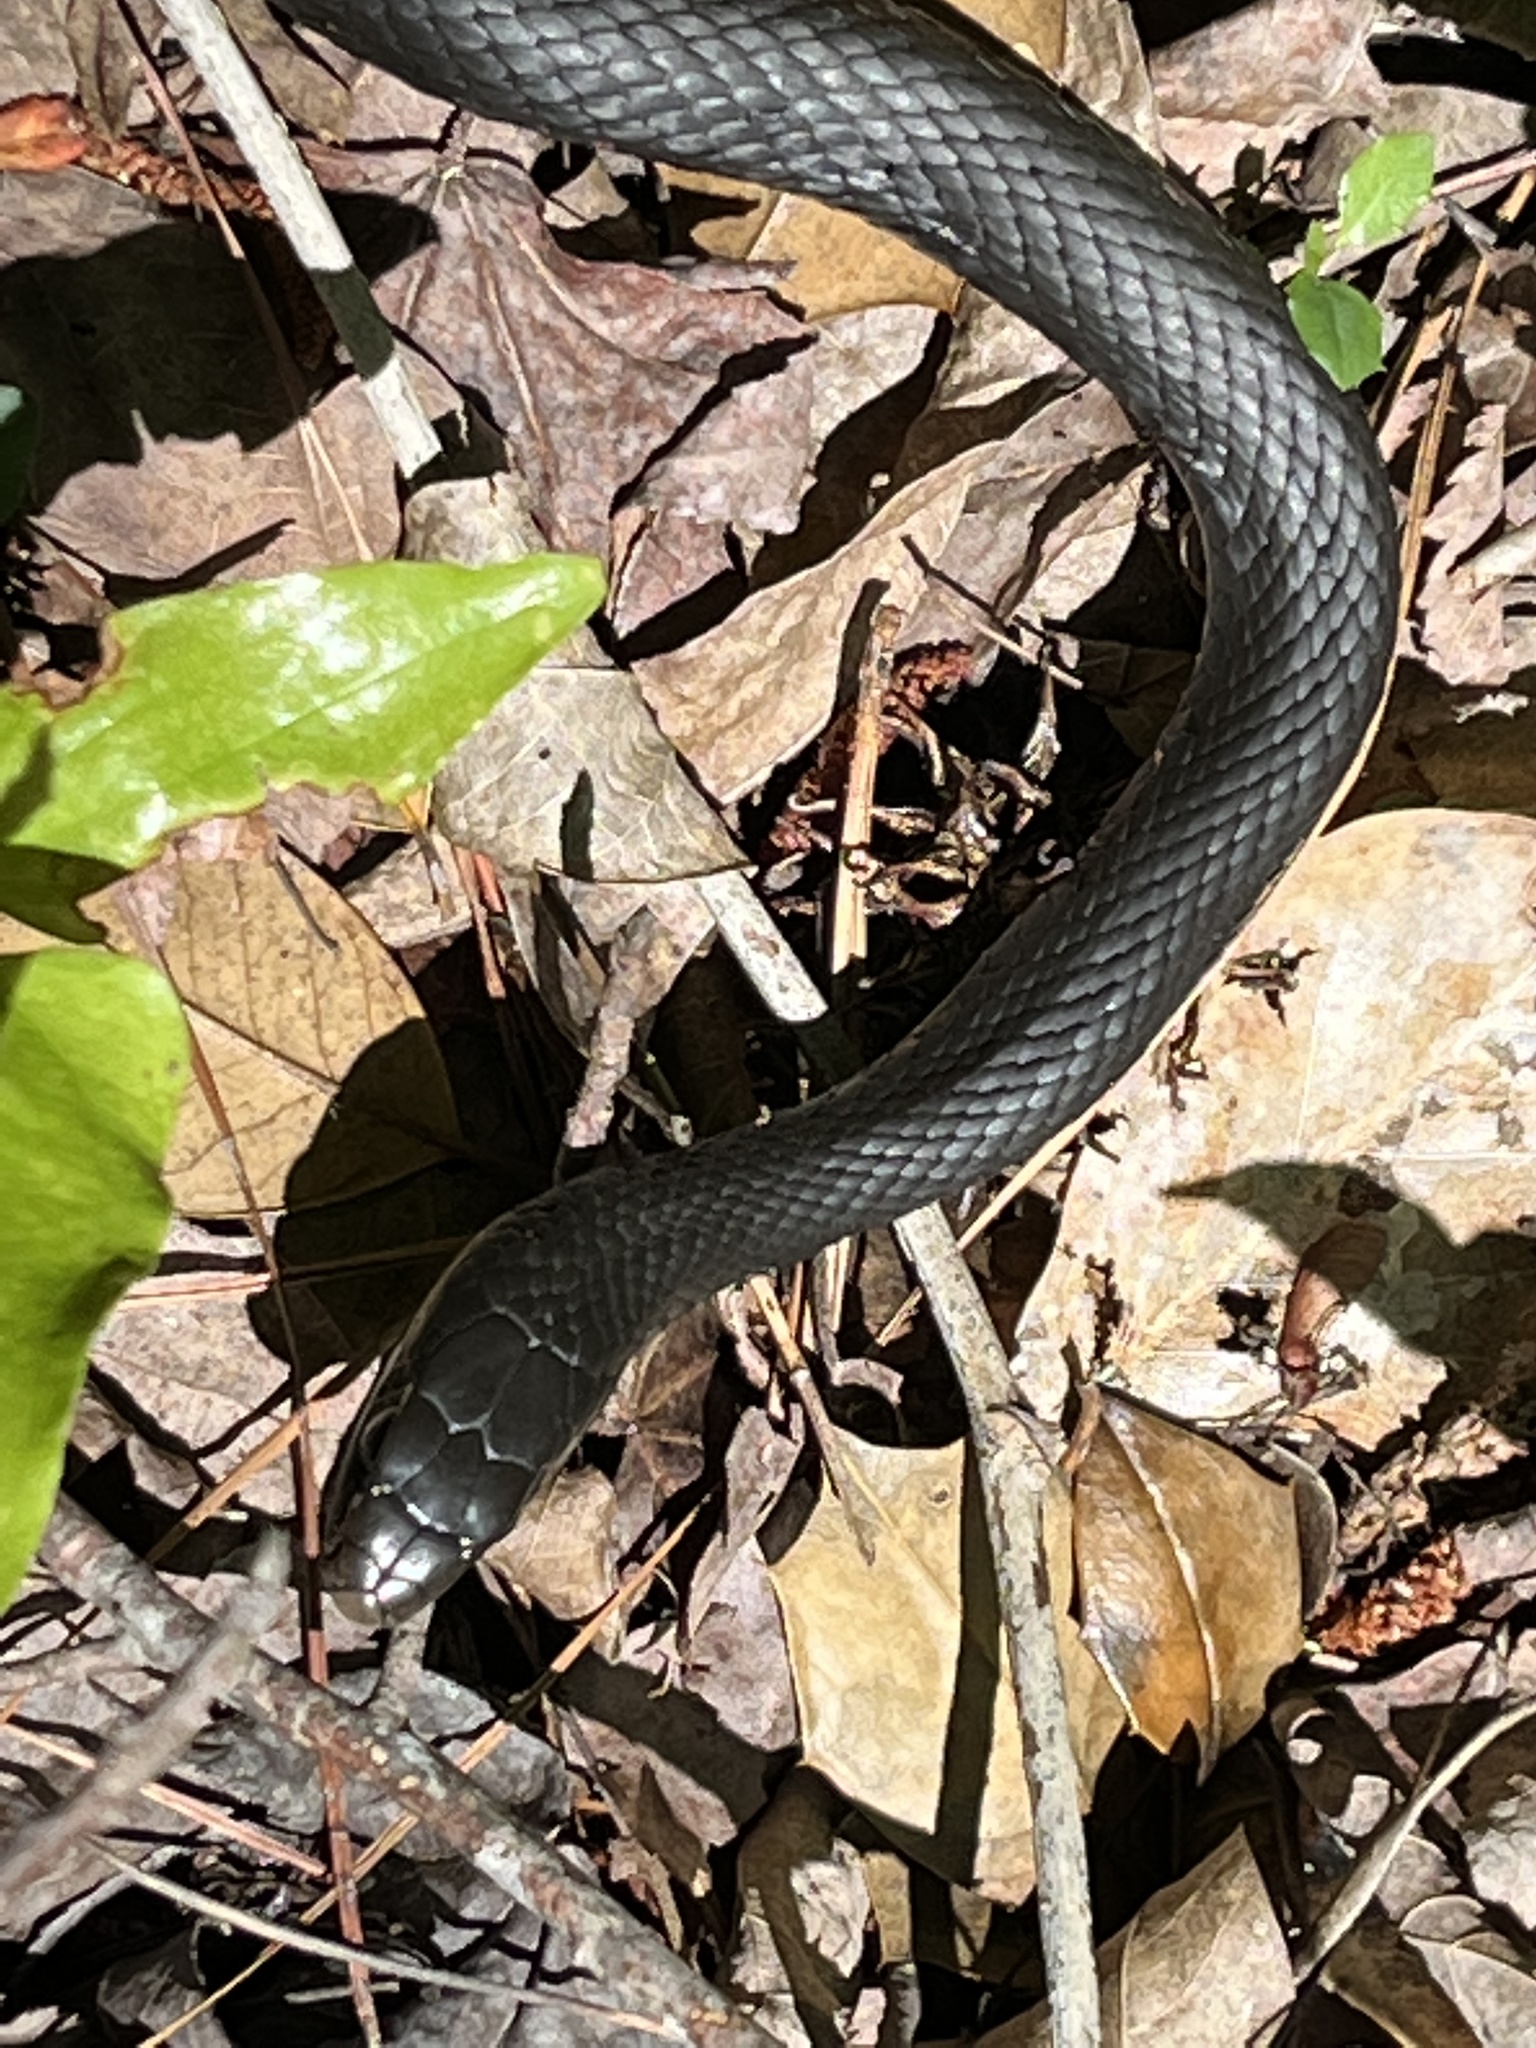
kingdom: Animalia
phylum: Chordata
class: Squamata
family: Colubridae
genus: Coluber
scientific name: Coluber constrictor
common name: Eastern racer
